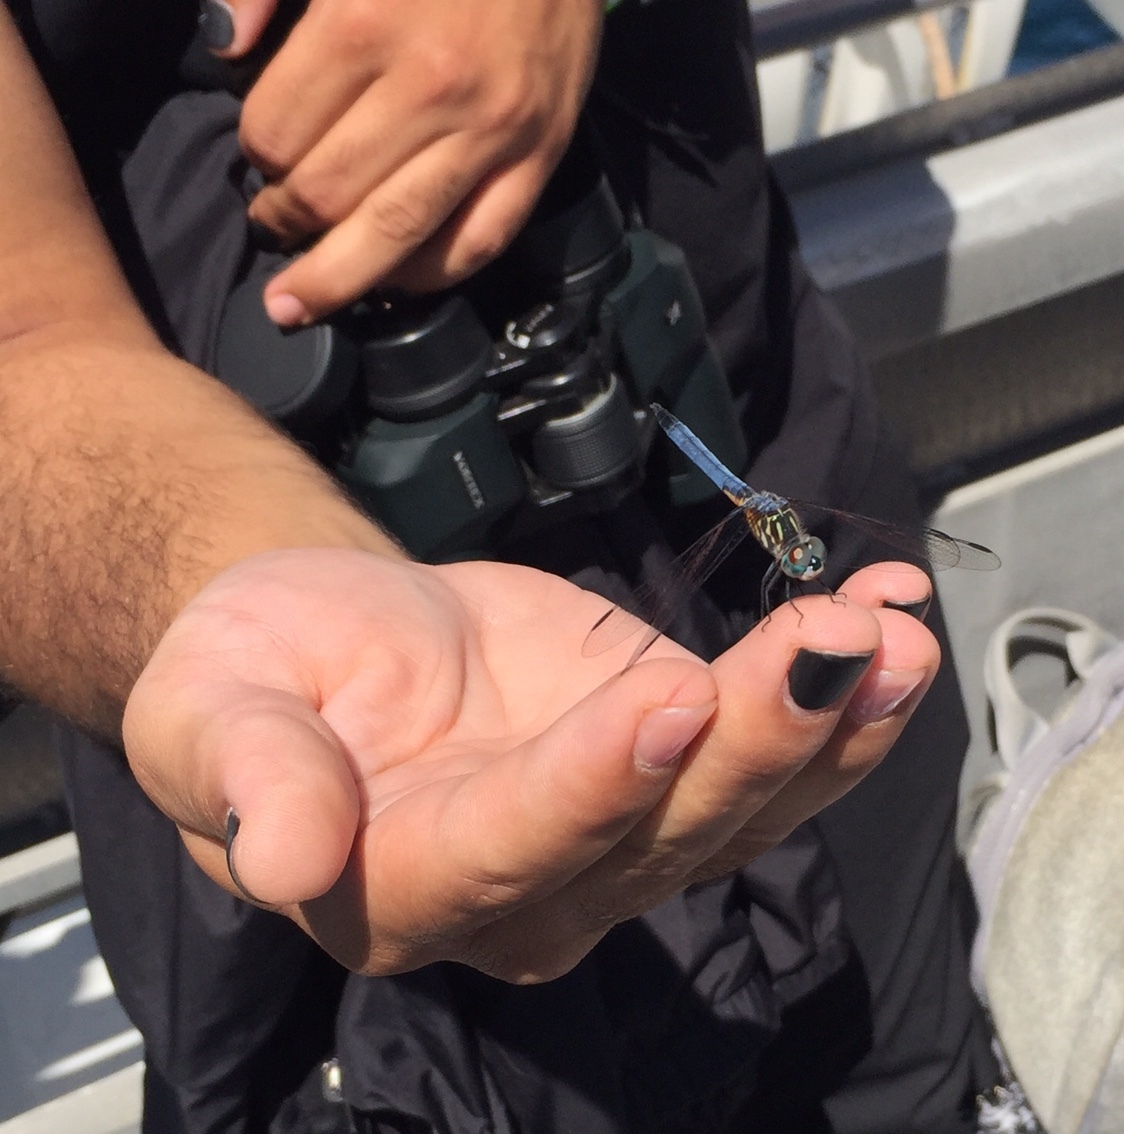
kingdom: Animalia
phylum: Arthropoda
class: Insecta
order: Odonata
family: Libellulidae
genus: Pachydiplax
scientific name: Pachydiplax longipennis
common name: Blue dasher
